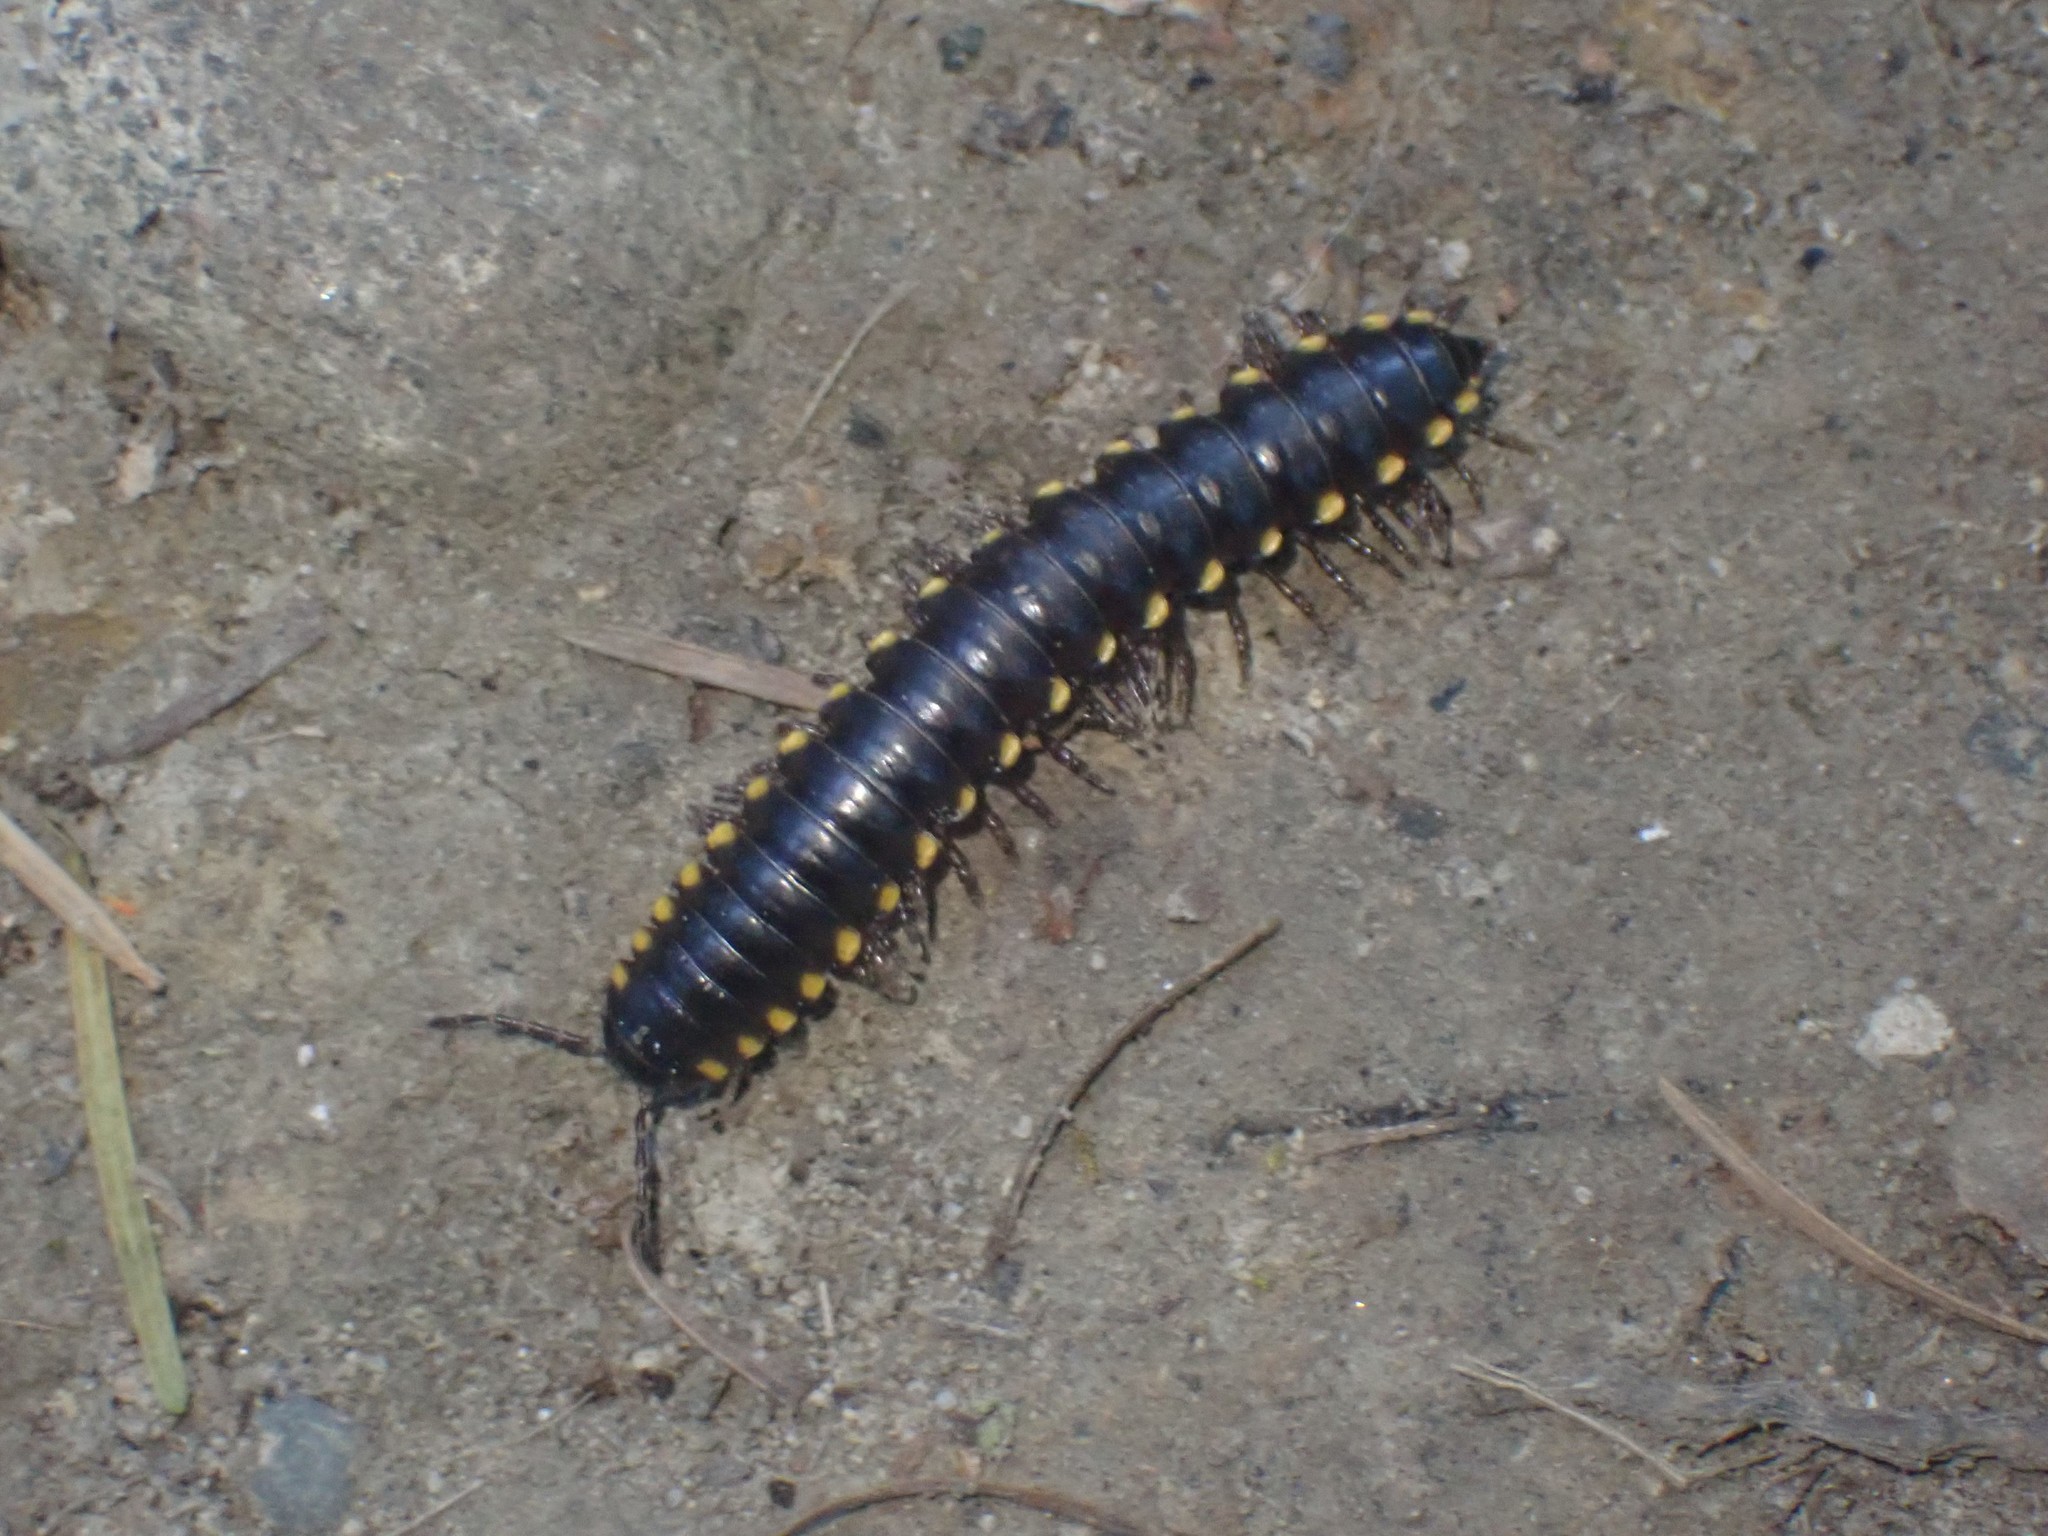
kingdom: Animalia
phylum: Arthropoda
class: Diplopoda
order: Polydesmida
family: Xystodesmidae
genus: Harpaphe
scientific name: Harpaphe haydeniana
